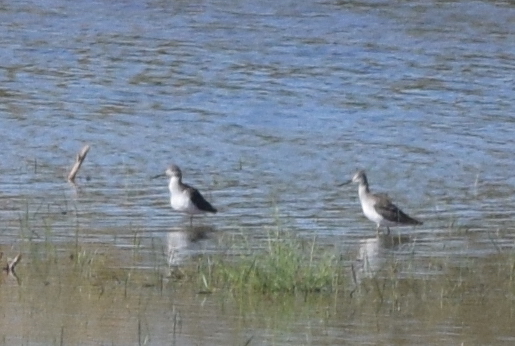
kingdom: Animalia
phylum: Chordata
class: Aves
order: Charadriiformes
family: Scolopacidae
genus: Tringa
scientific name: Tringa melanoleuca
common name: Greater yellowlegs
